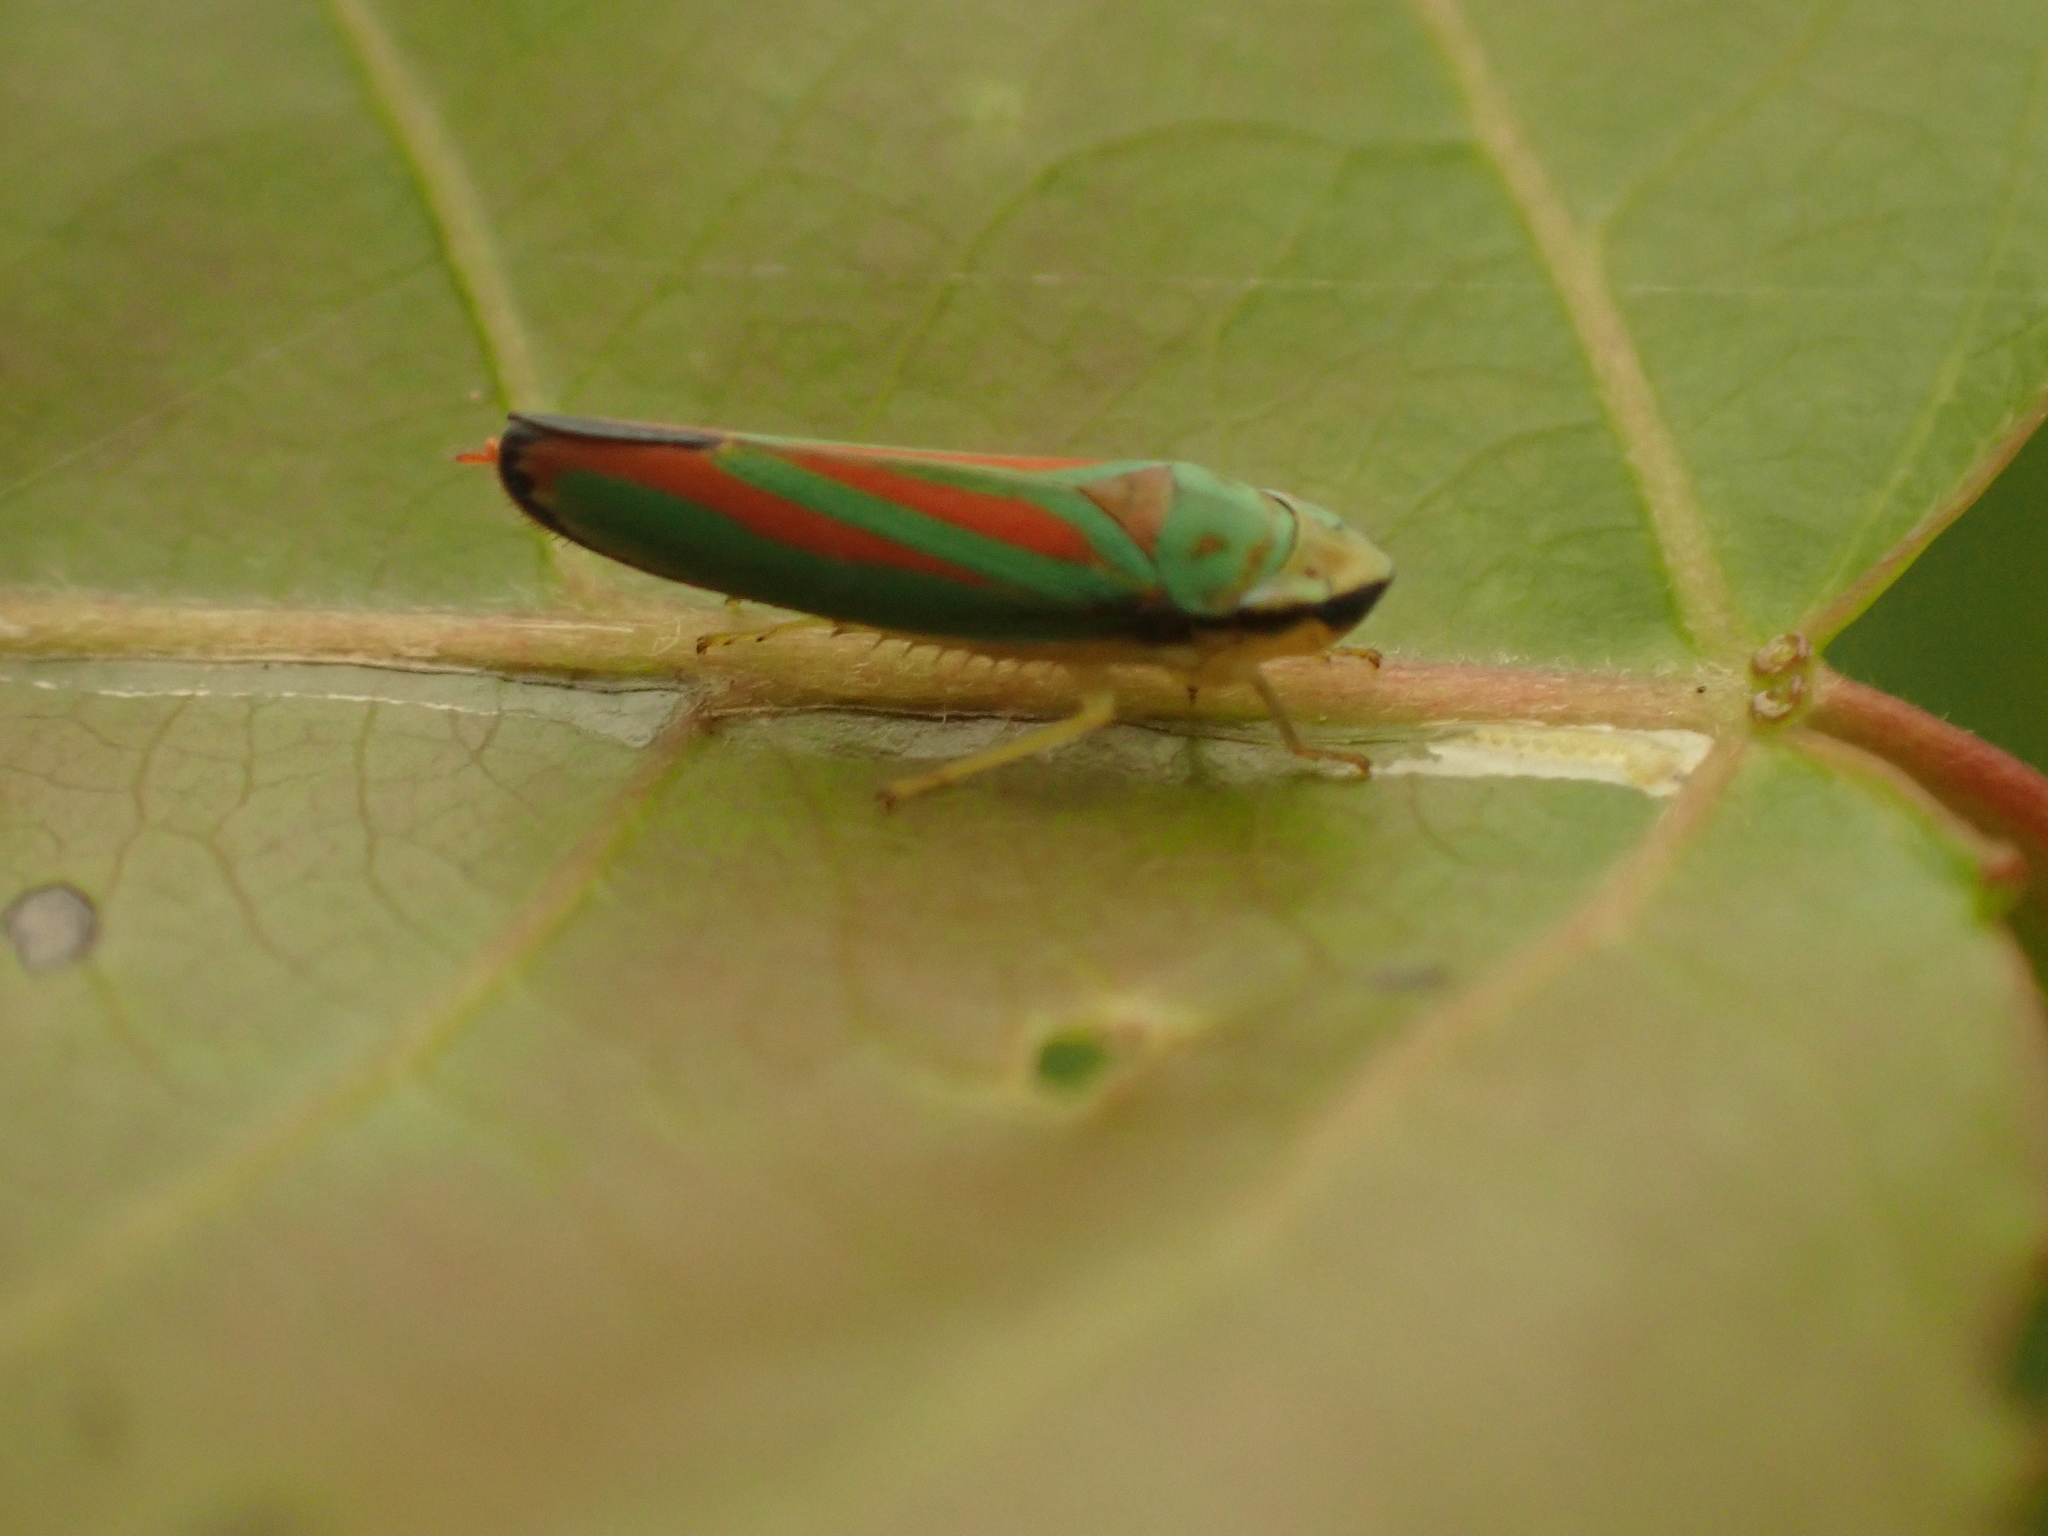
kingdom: Animalia
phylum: Arthropoda
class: Insecta
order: Hemiptera
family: Cicadellidae
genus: Graphocephala
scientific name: Graphocephala fennahi
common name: Rhododendron leafhopper
